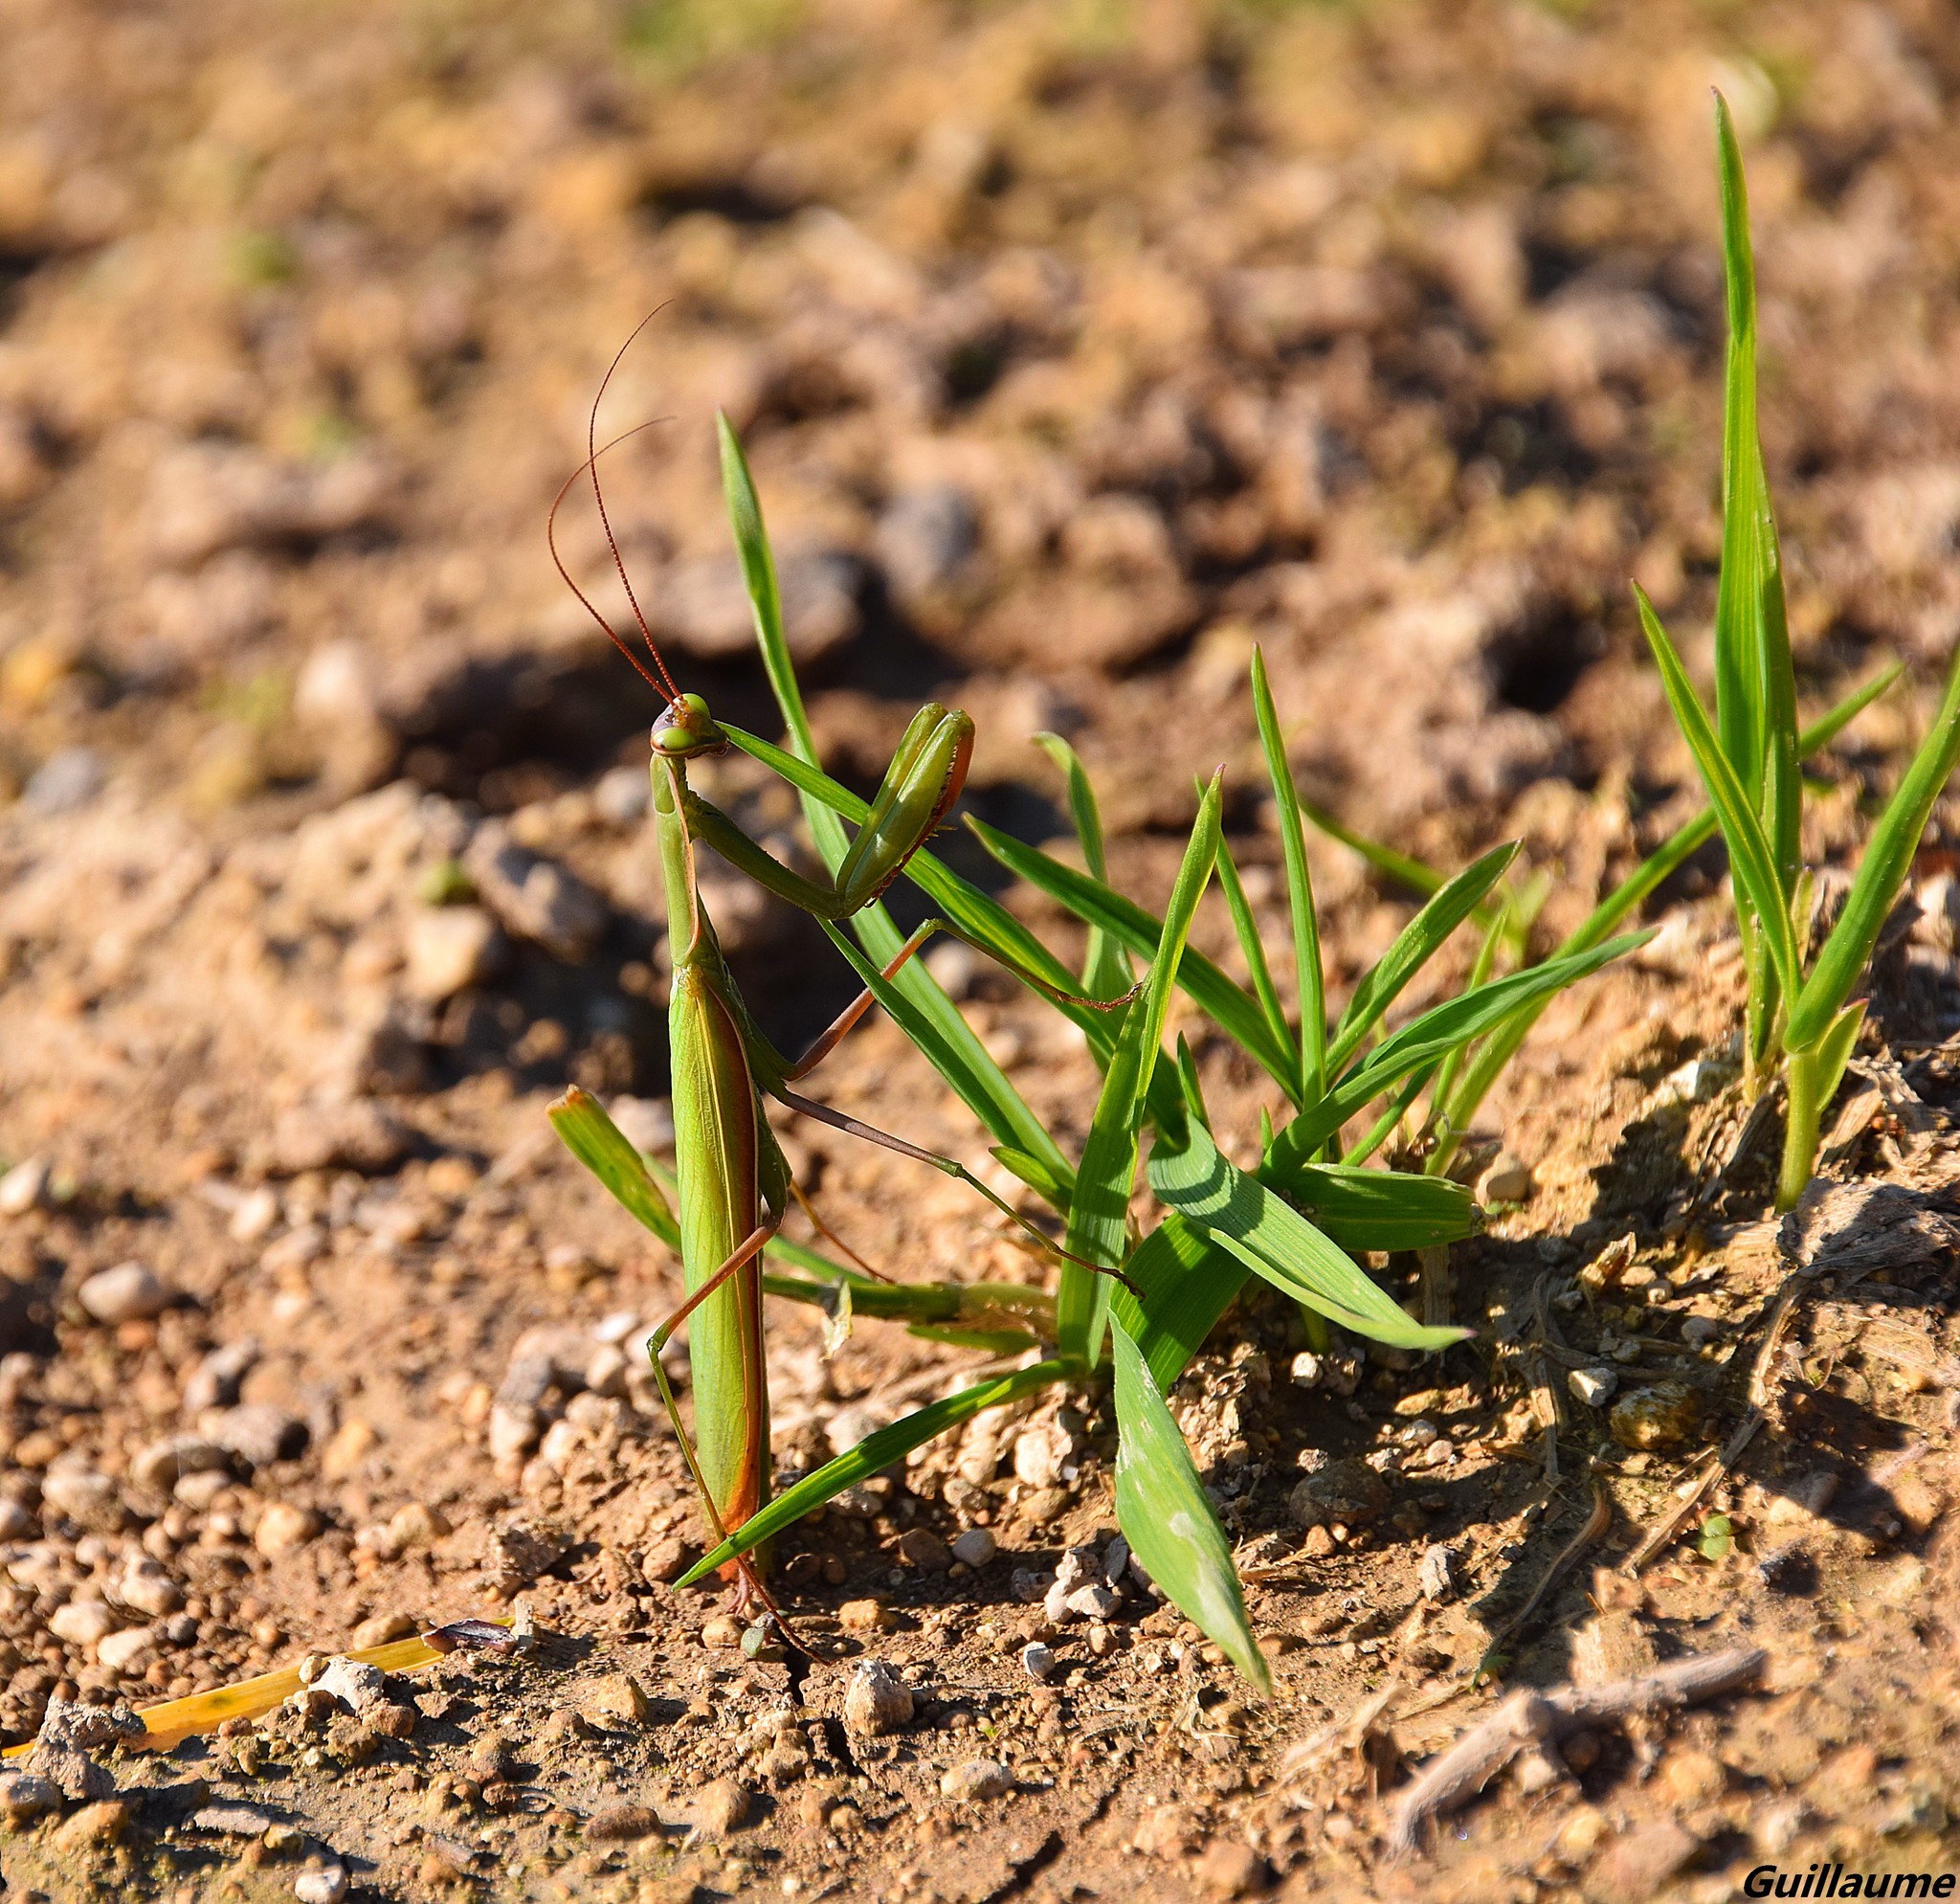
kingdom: Animalia
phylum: Arthropoda
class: Insecta
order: Mantodea
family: Mantidae
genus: Mantis
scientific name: Mantis religiosa
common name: Praying mantis
